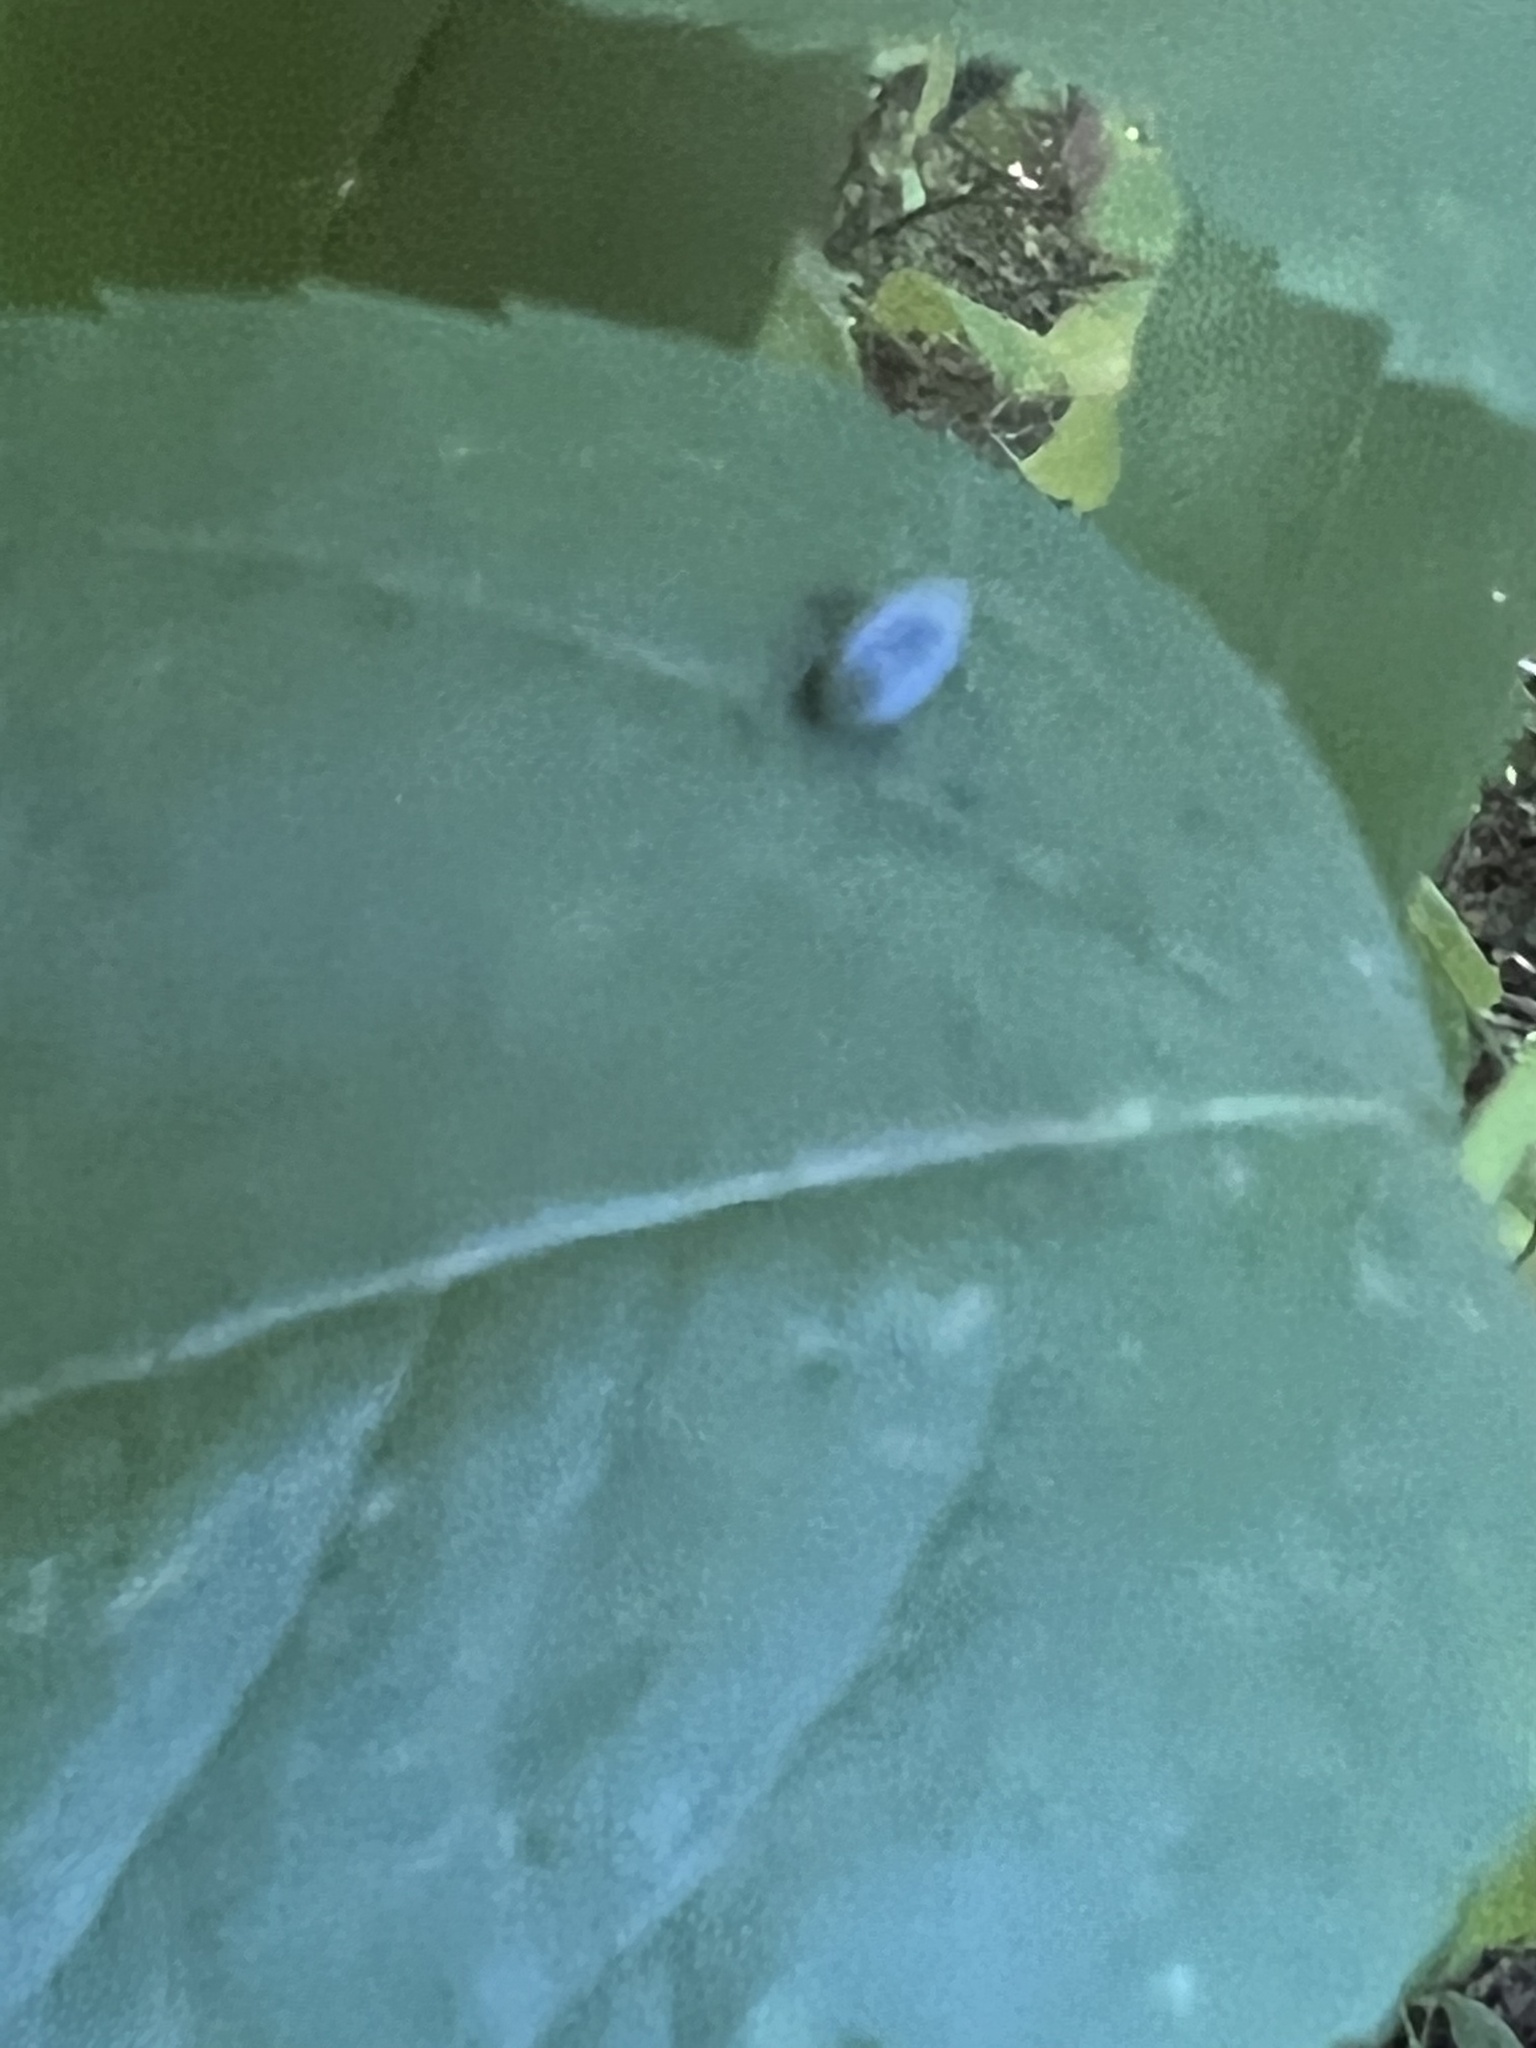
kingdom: Animalia
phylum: Arthropoda
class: Insecta
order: Coleoptera
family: Curculionidae
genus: Cyrtepistomus
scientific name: Cyrtepistomus castaneus
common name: Weevil
